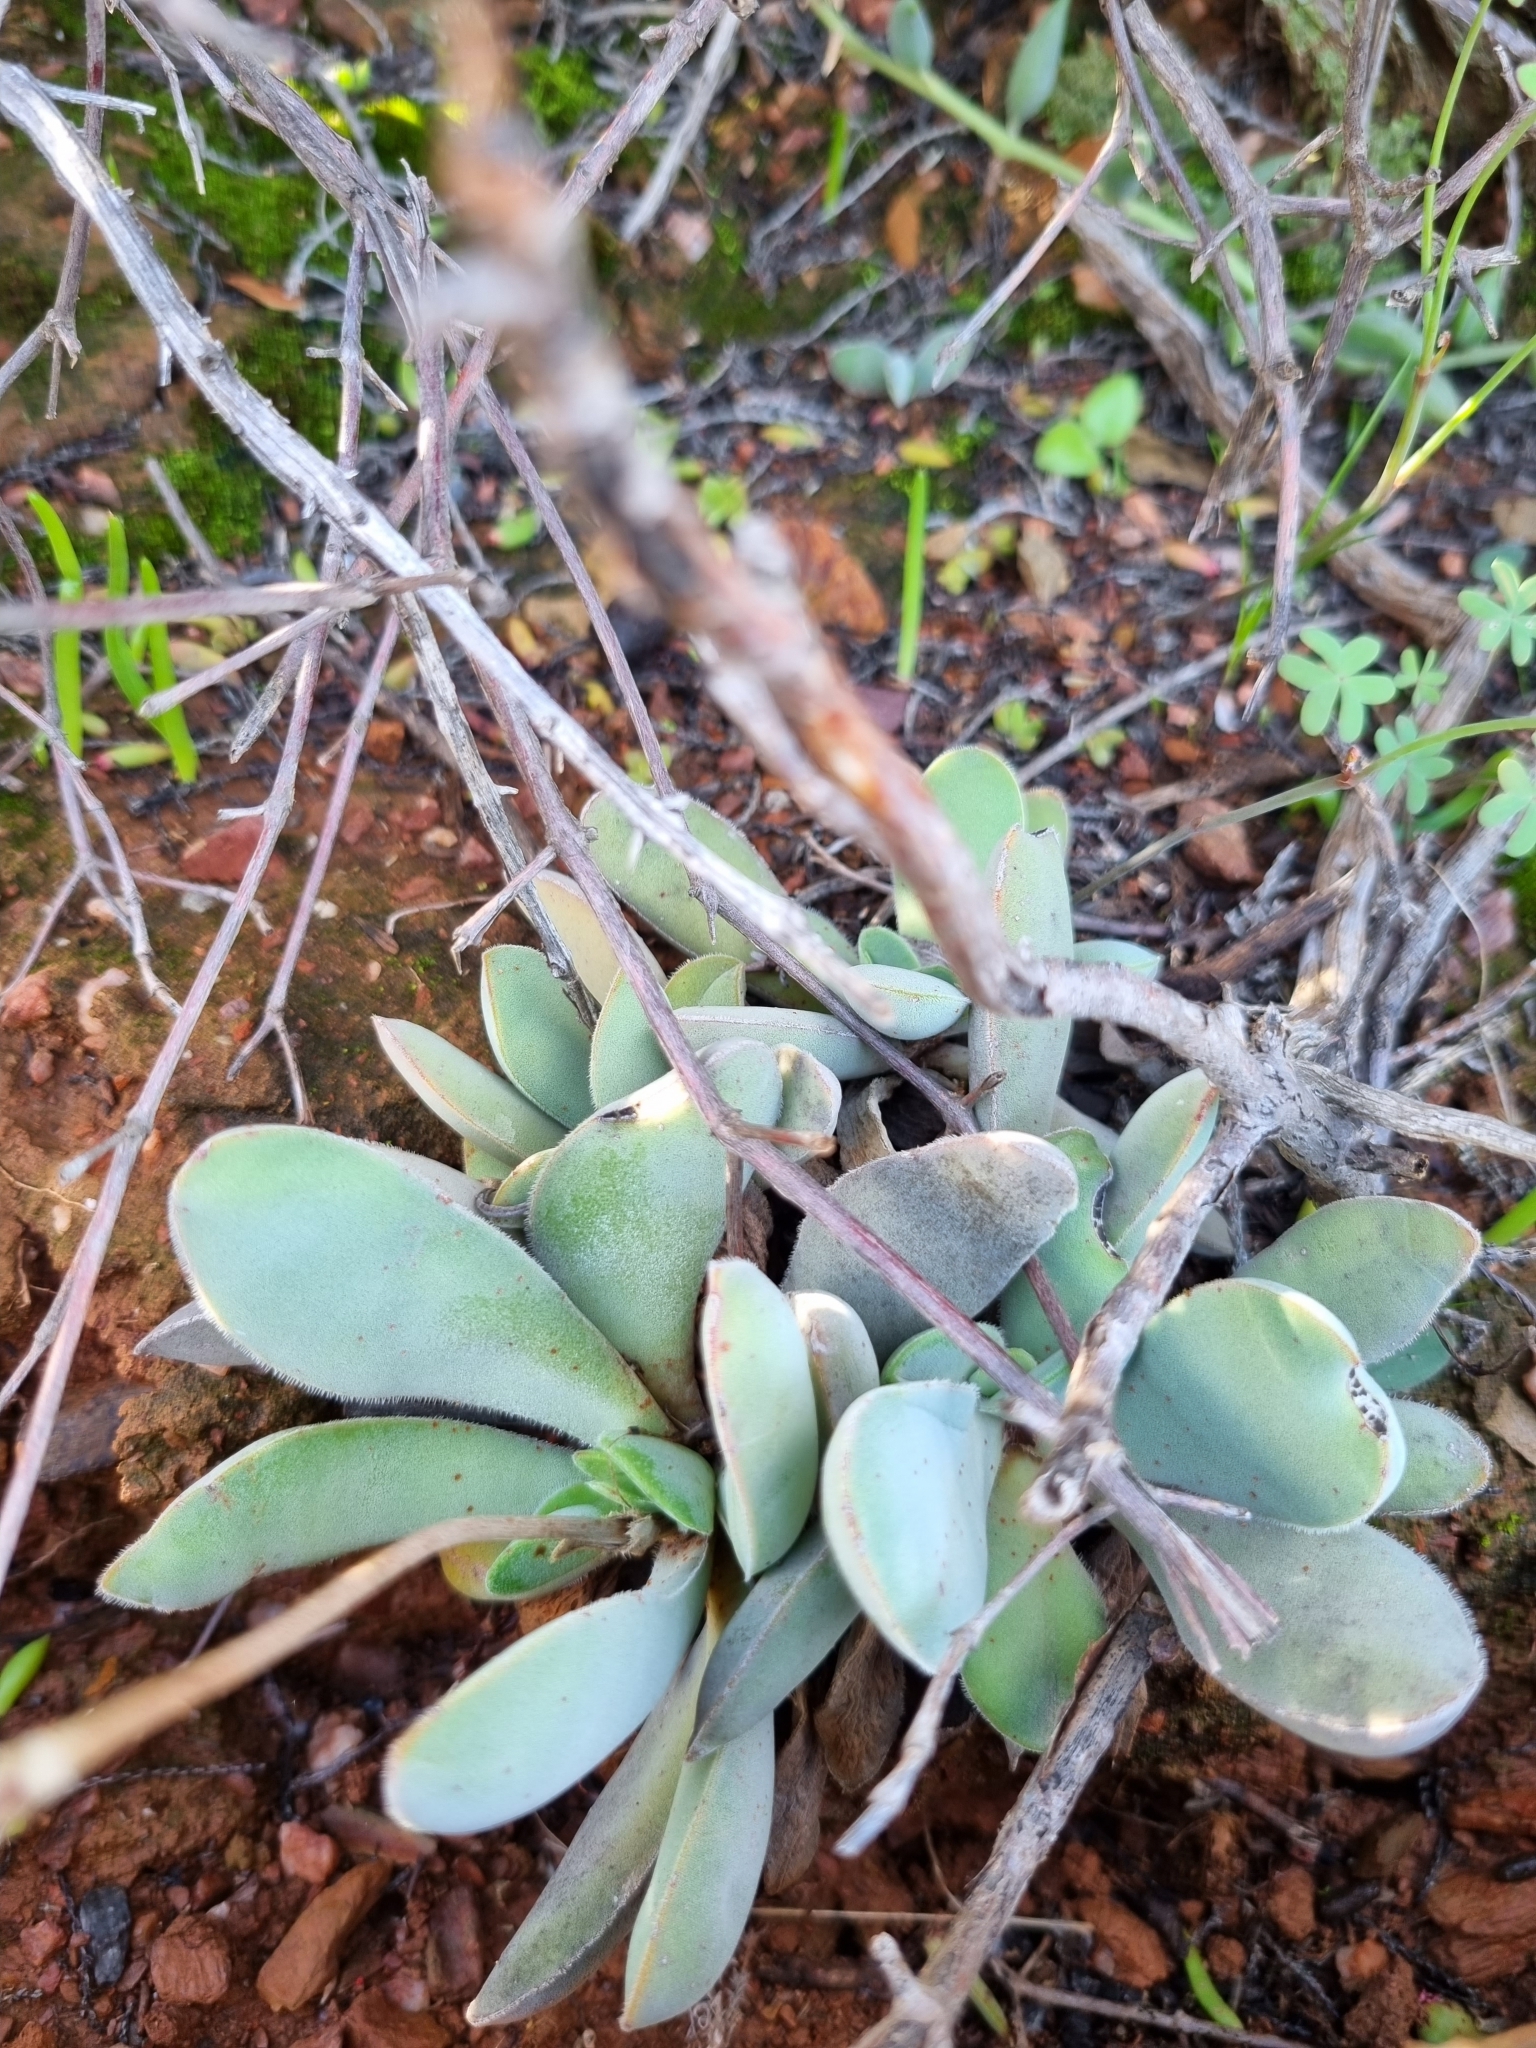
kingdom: Plantae
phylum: Tracheophyta
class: Magnoliopsida
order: Saxifragales
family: Crassulaceae
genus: Crassula
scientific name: Crassula cotyledonis
